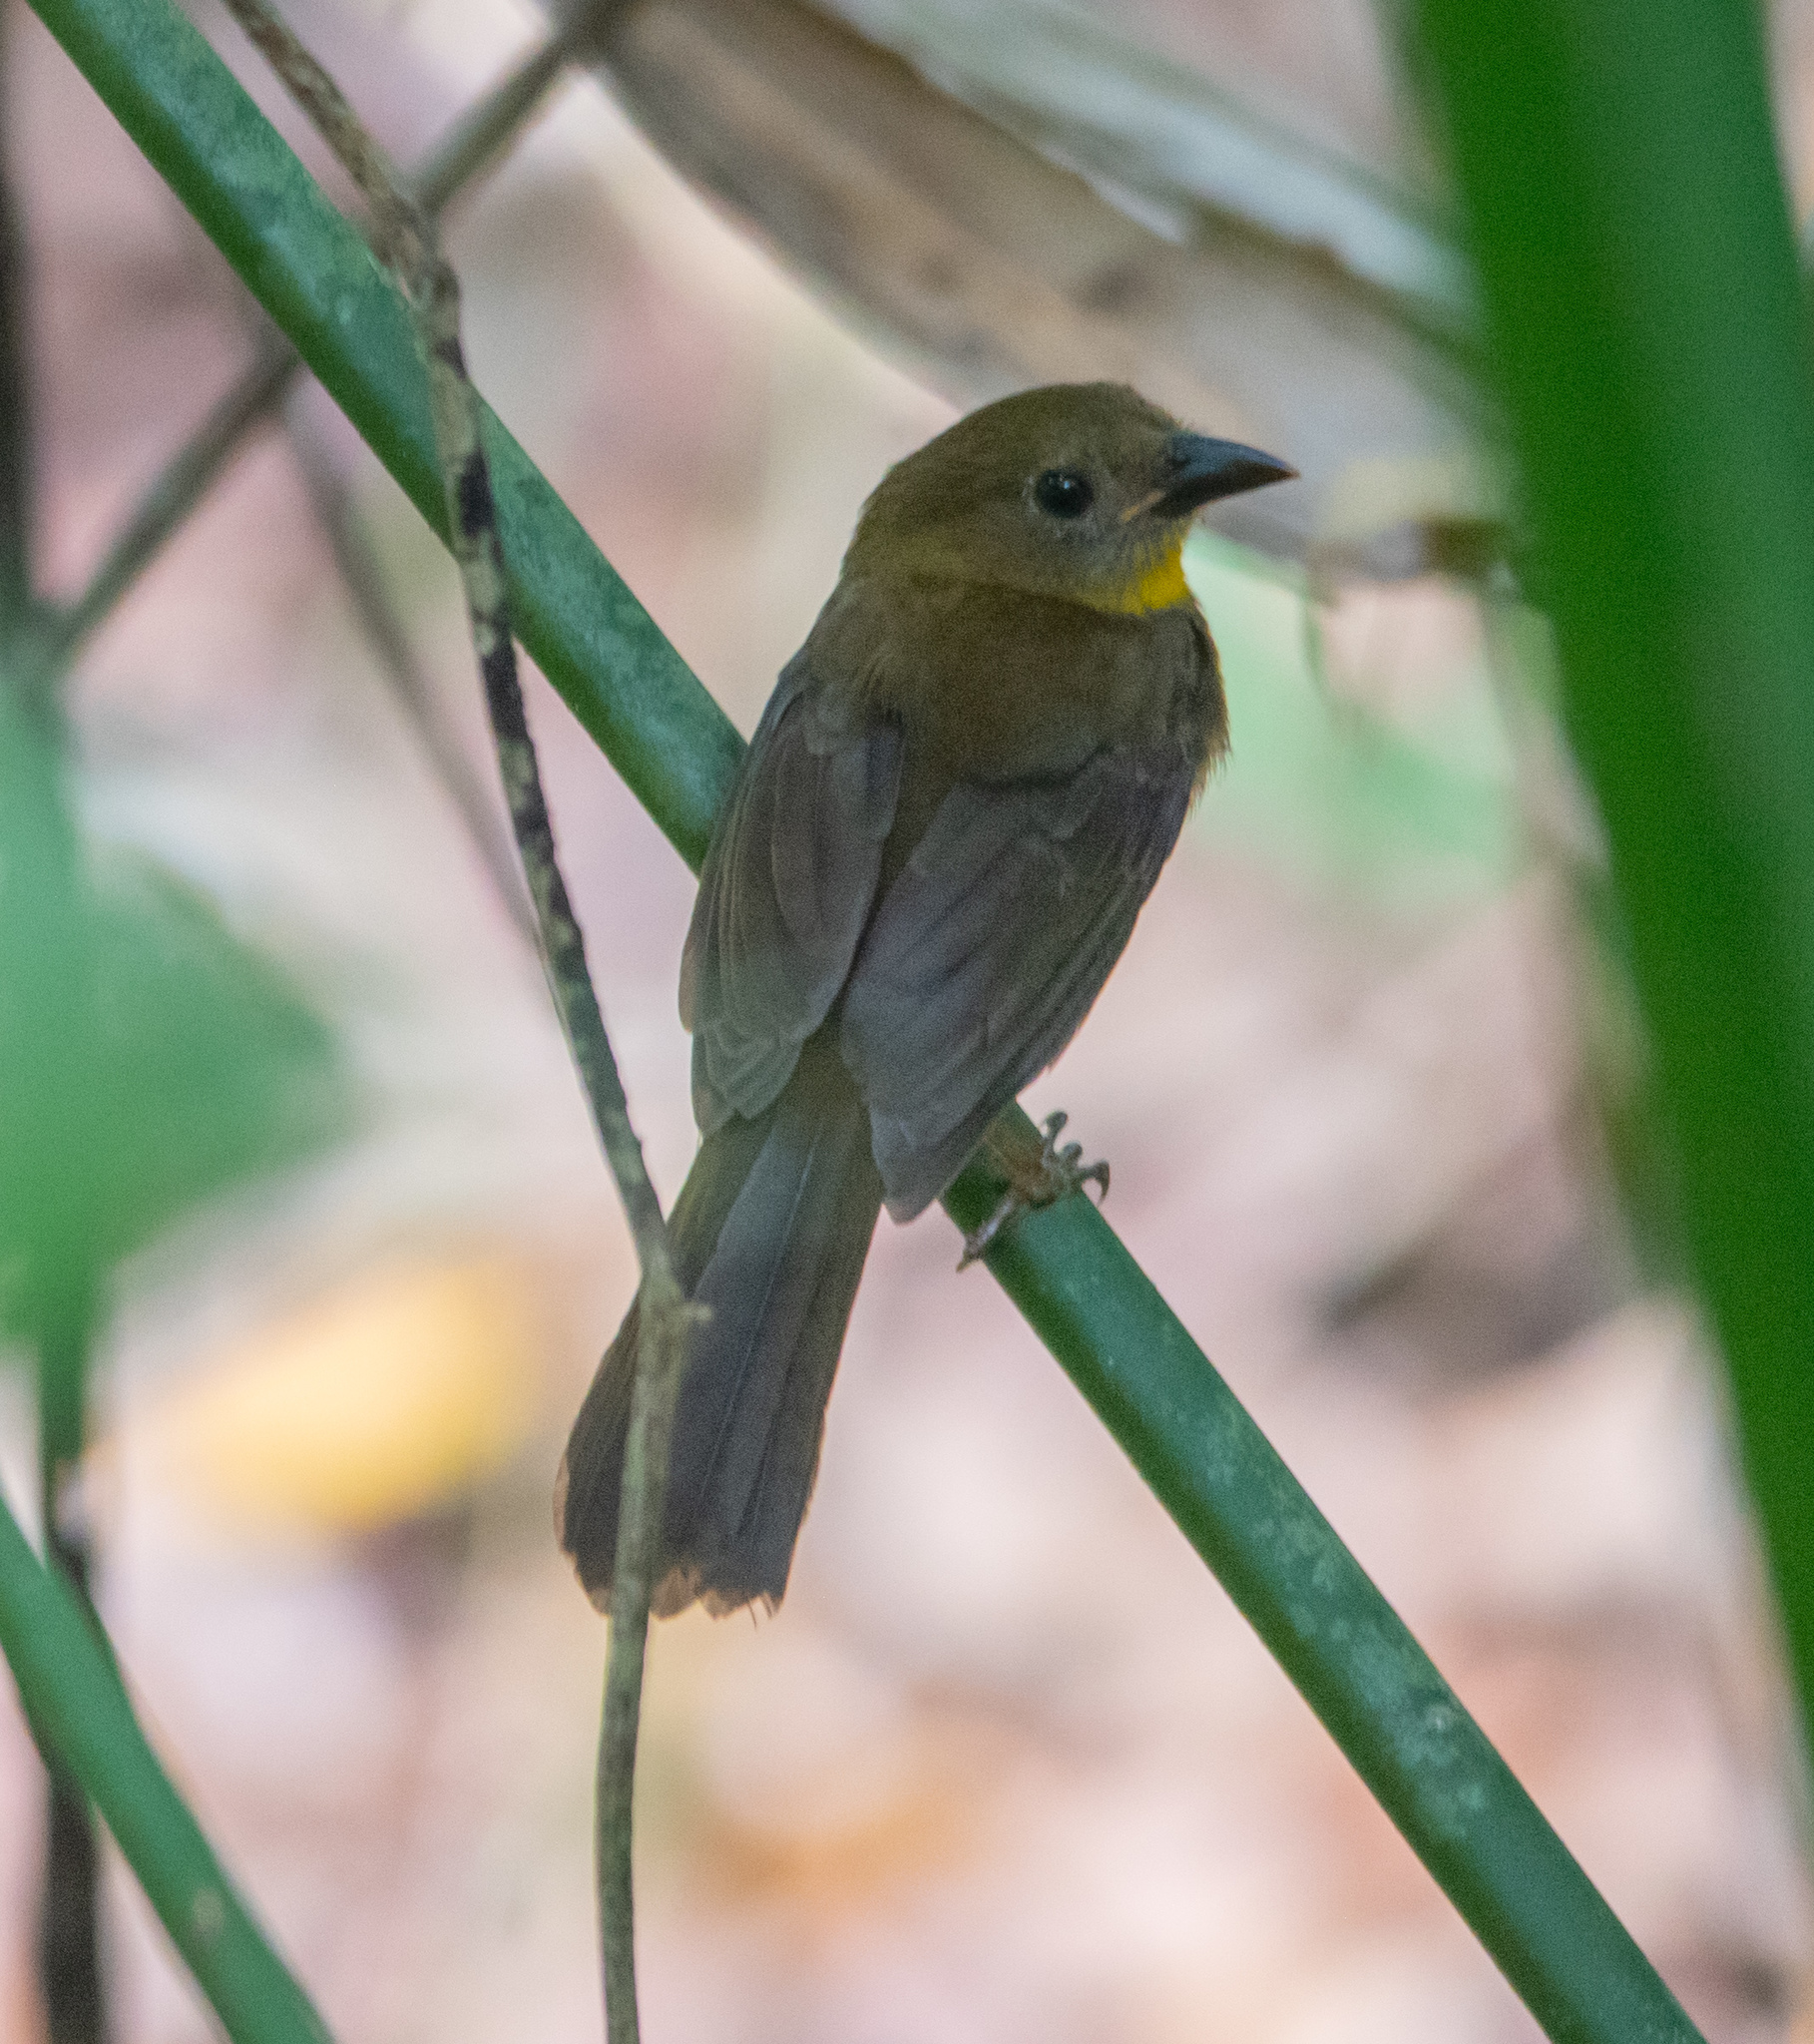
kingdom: Animalia
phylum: Chordata
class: Aves
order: Passeriformes
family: Cardinalidae
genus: Habia
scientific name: Habia fuscicauda
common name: Red-throated ant-tanager
